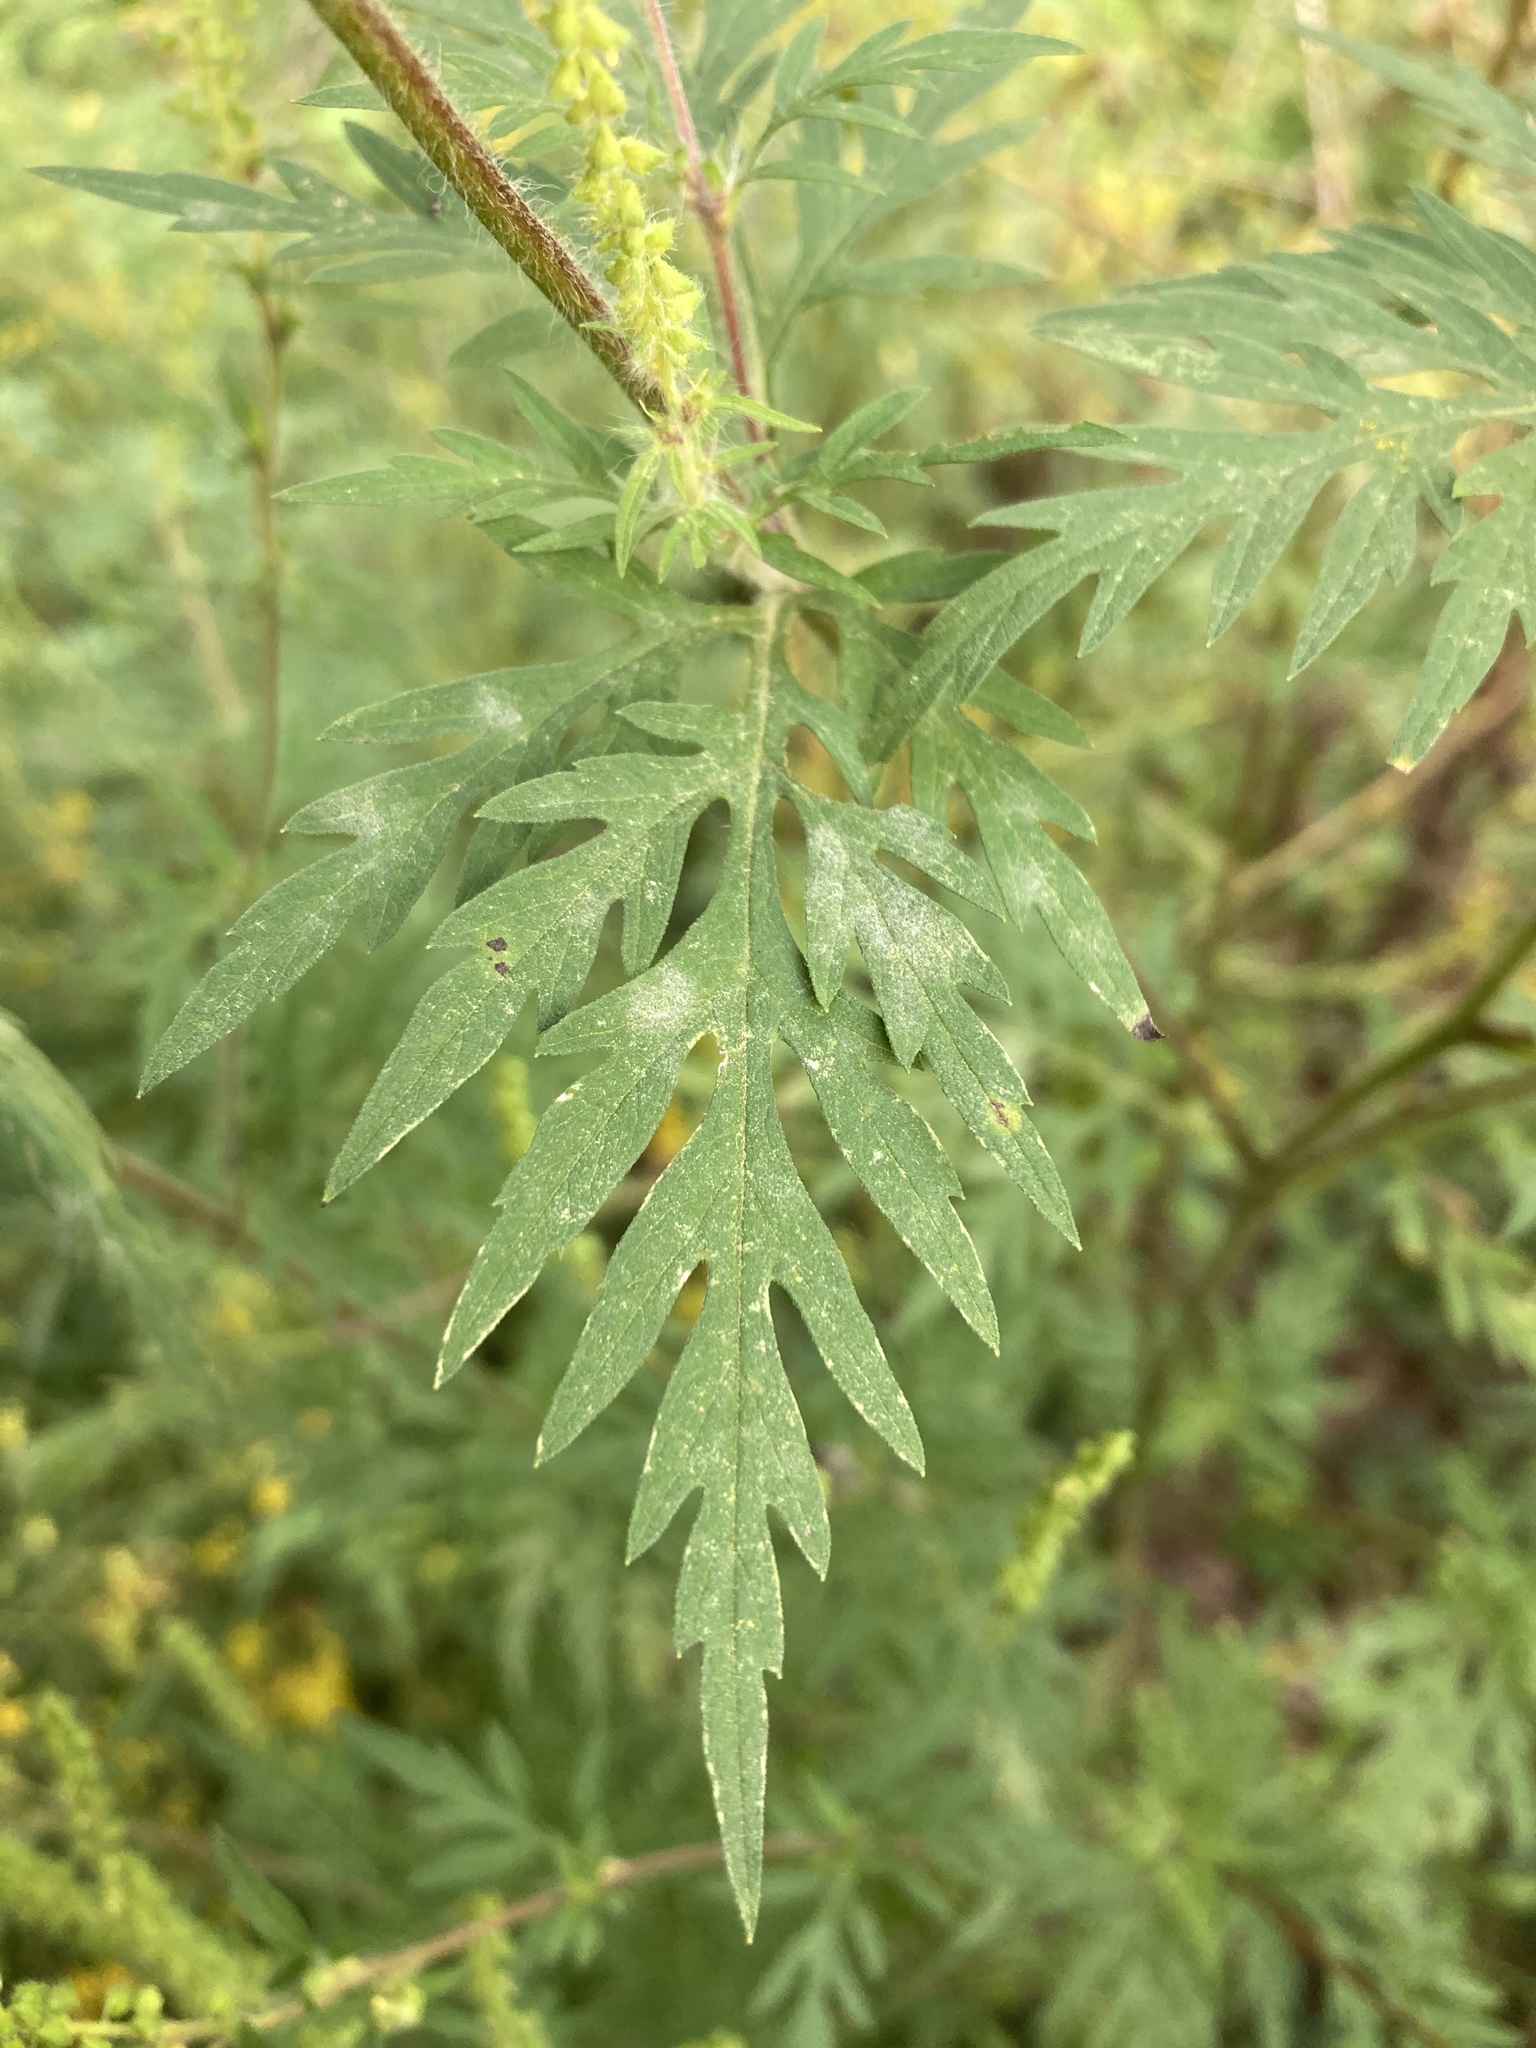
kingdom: Plantae
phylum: Tracheophyta
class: Magnoliopsida
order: Asterales
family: Asteraceae
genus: Ambrosia
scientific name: Ambrosia artemisiifolia
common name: Annual ragweed
